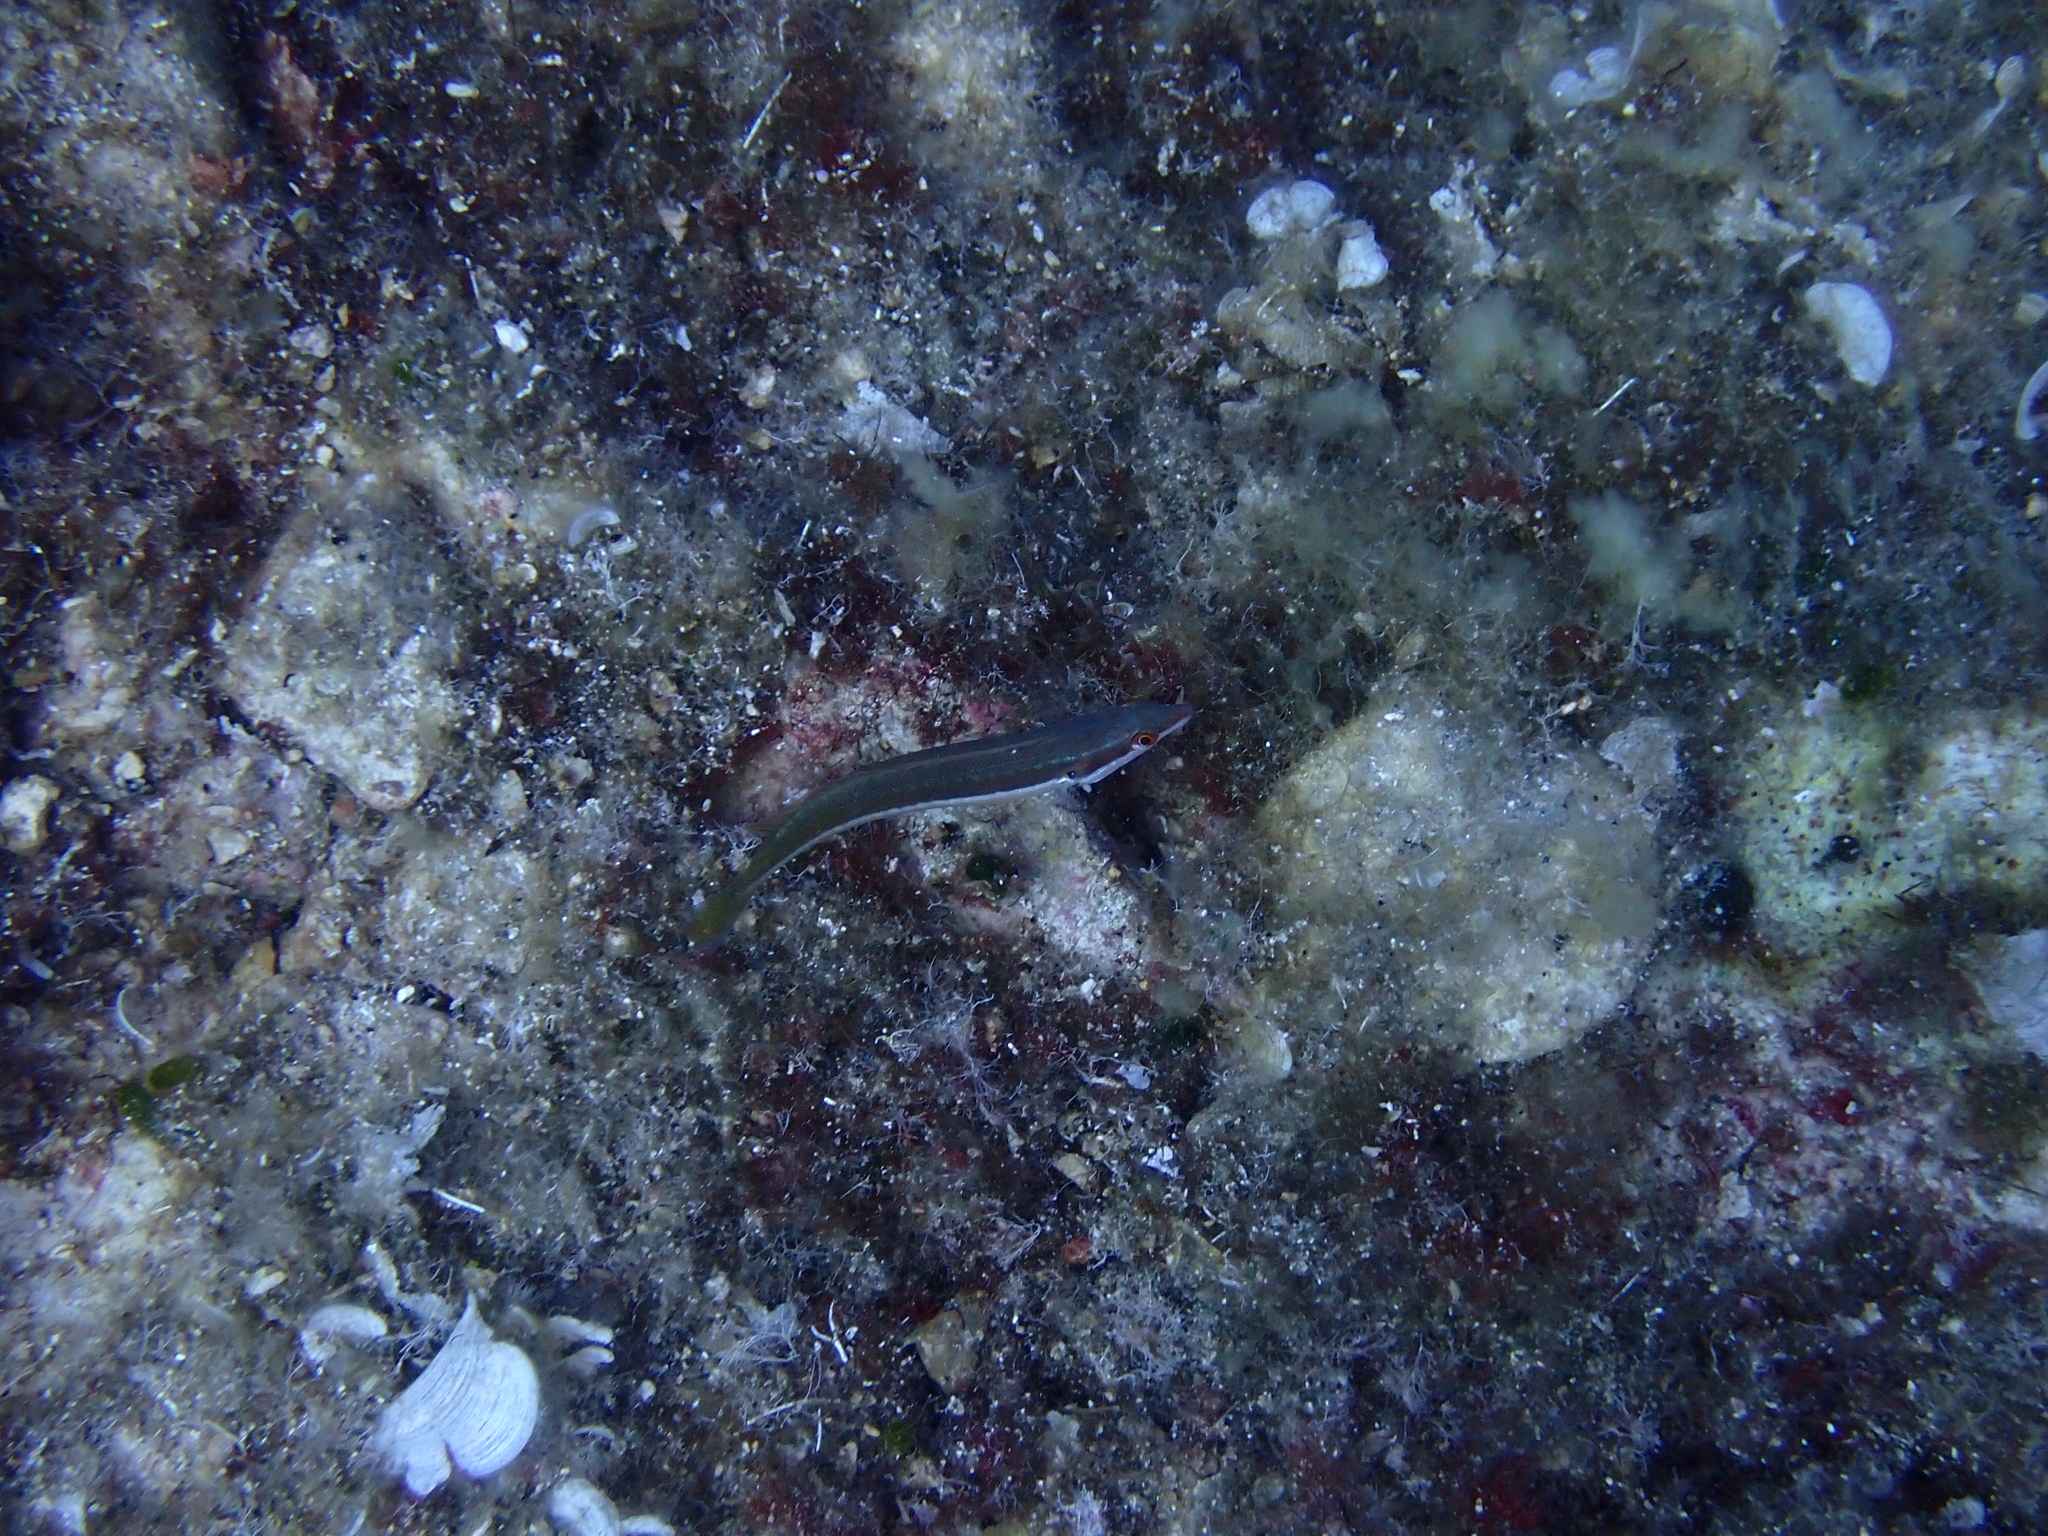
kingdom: Animalia
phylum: Chordata
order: Perciformes
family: Labridae
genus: Coris
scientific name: Coris julis
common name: Rainbow wrasse
